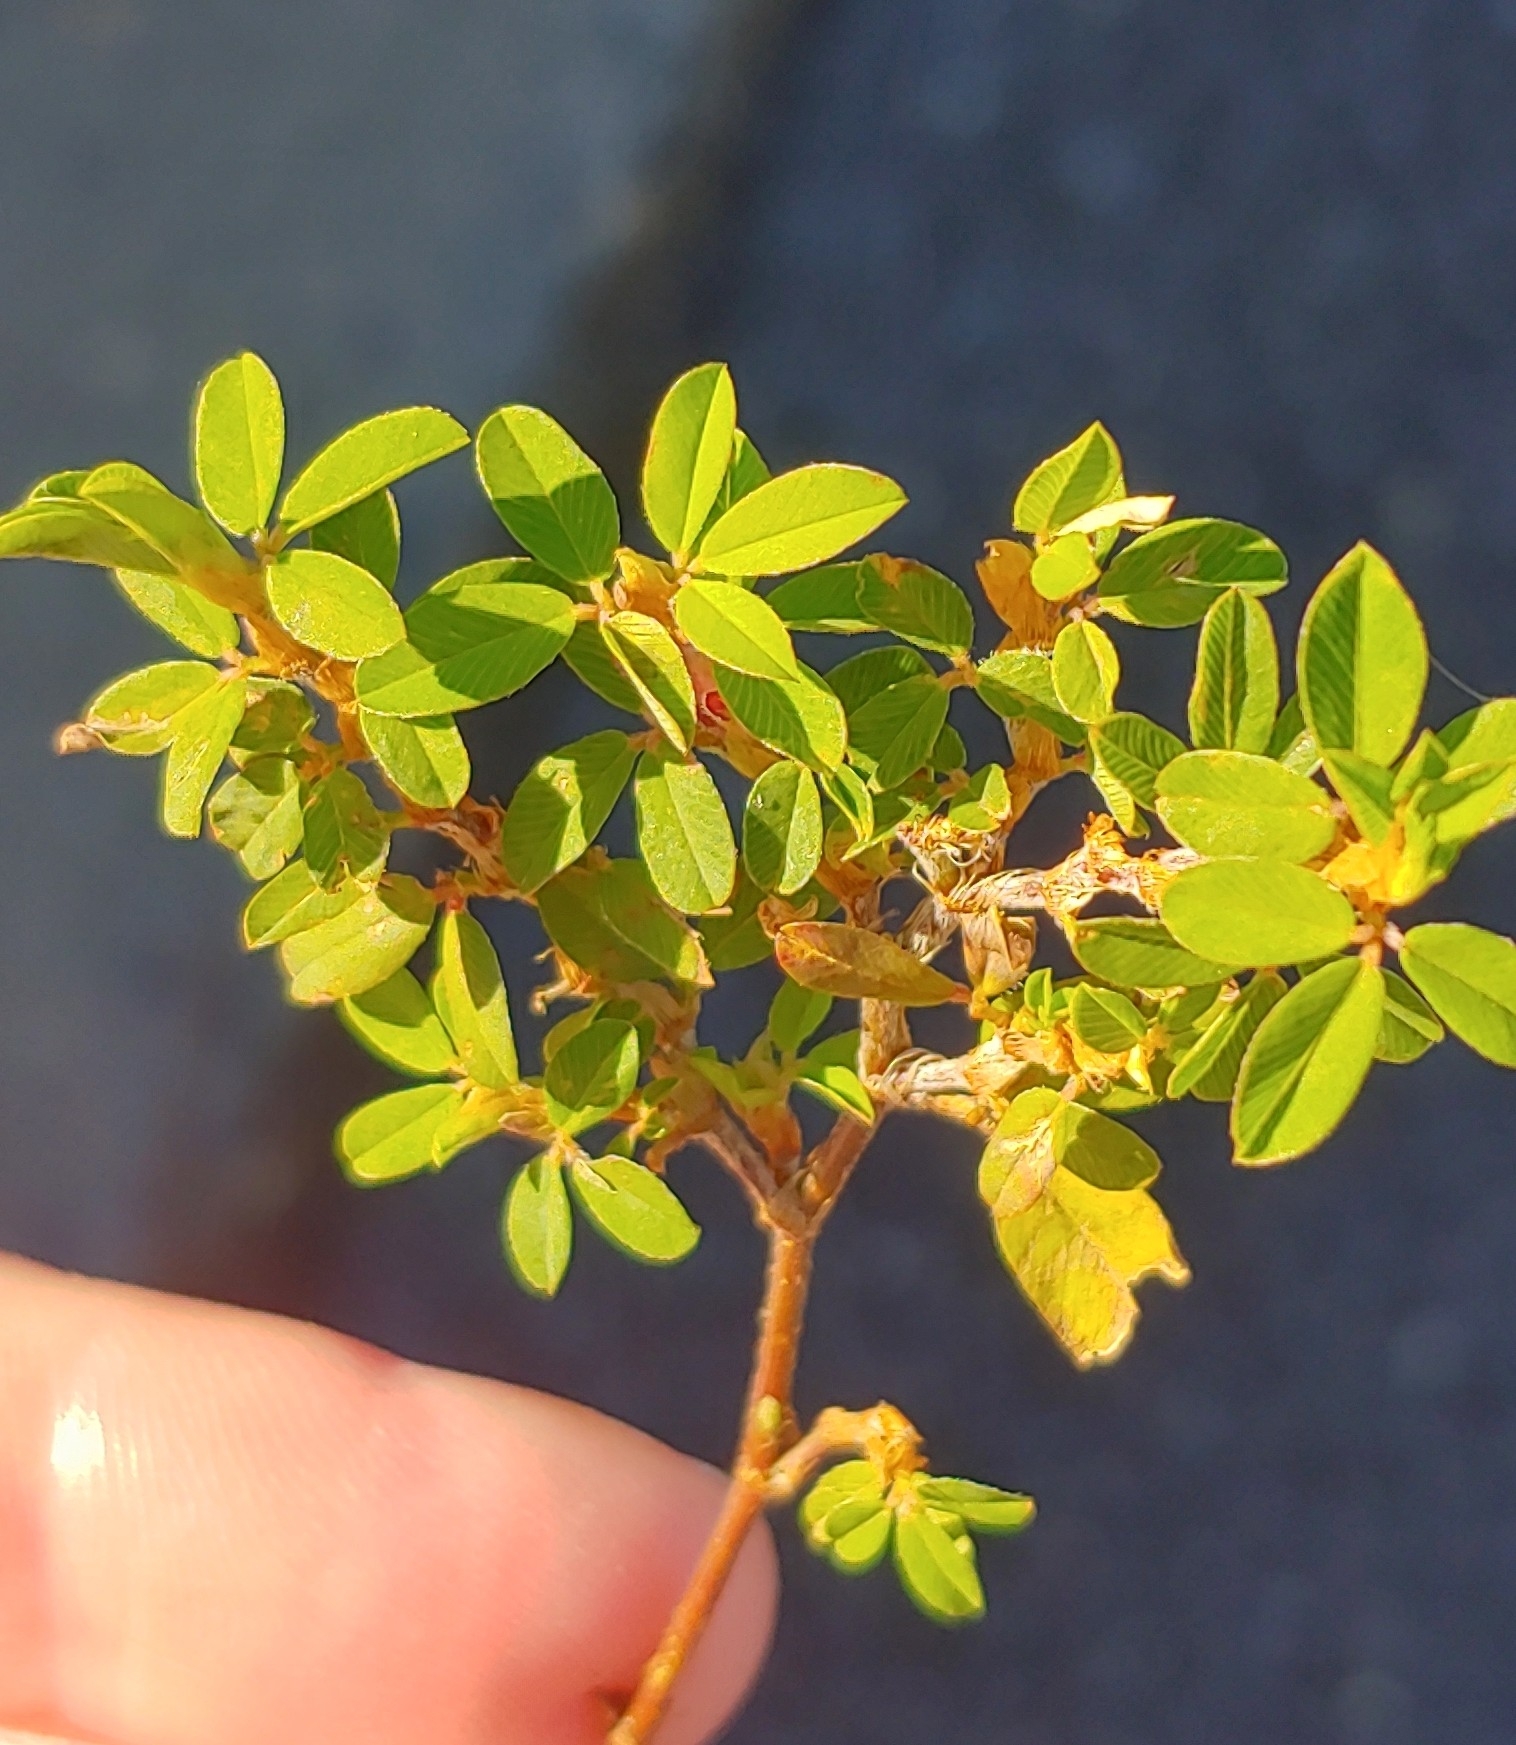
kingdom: Plantae
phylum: Tracheophyta
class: Magnoliopsida
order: Fabales
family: Fabaceae
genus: Kummerowia
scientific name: Kummerowia striata
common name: Japanese clover
